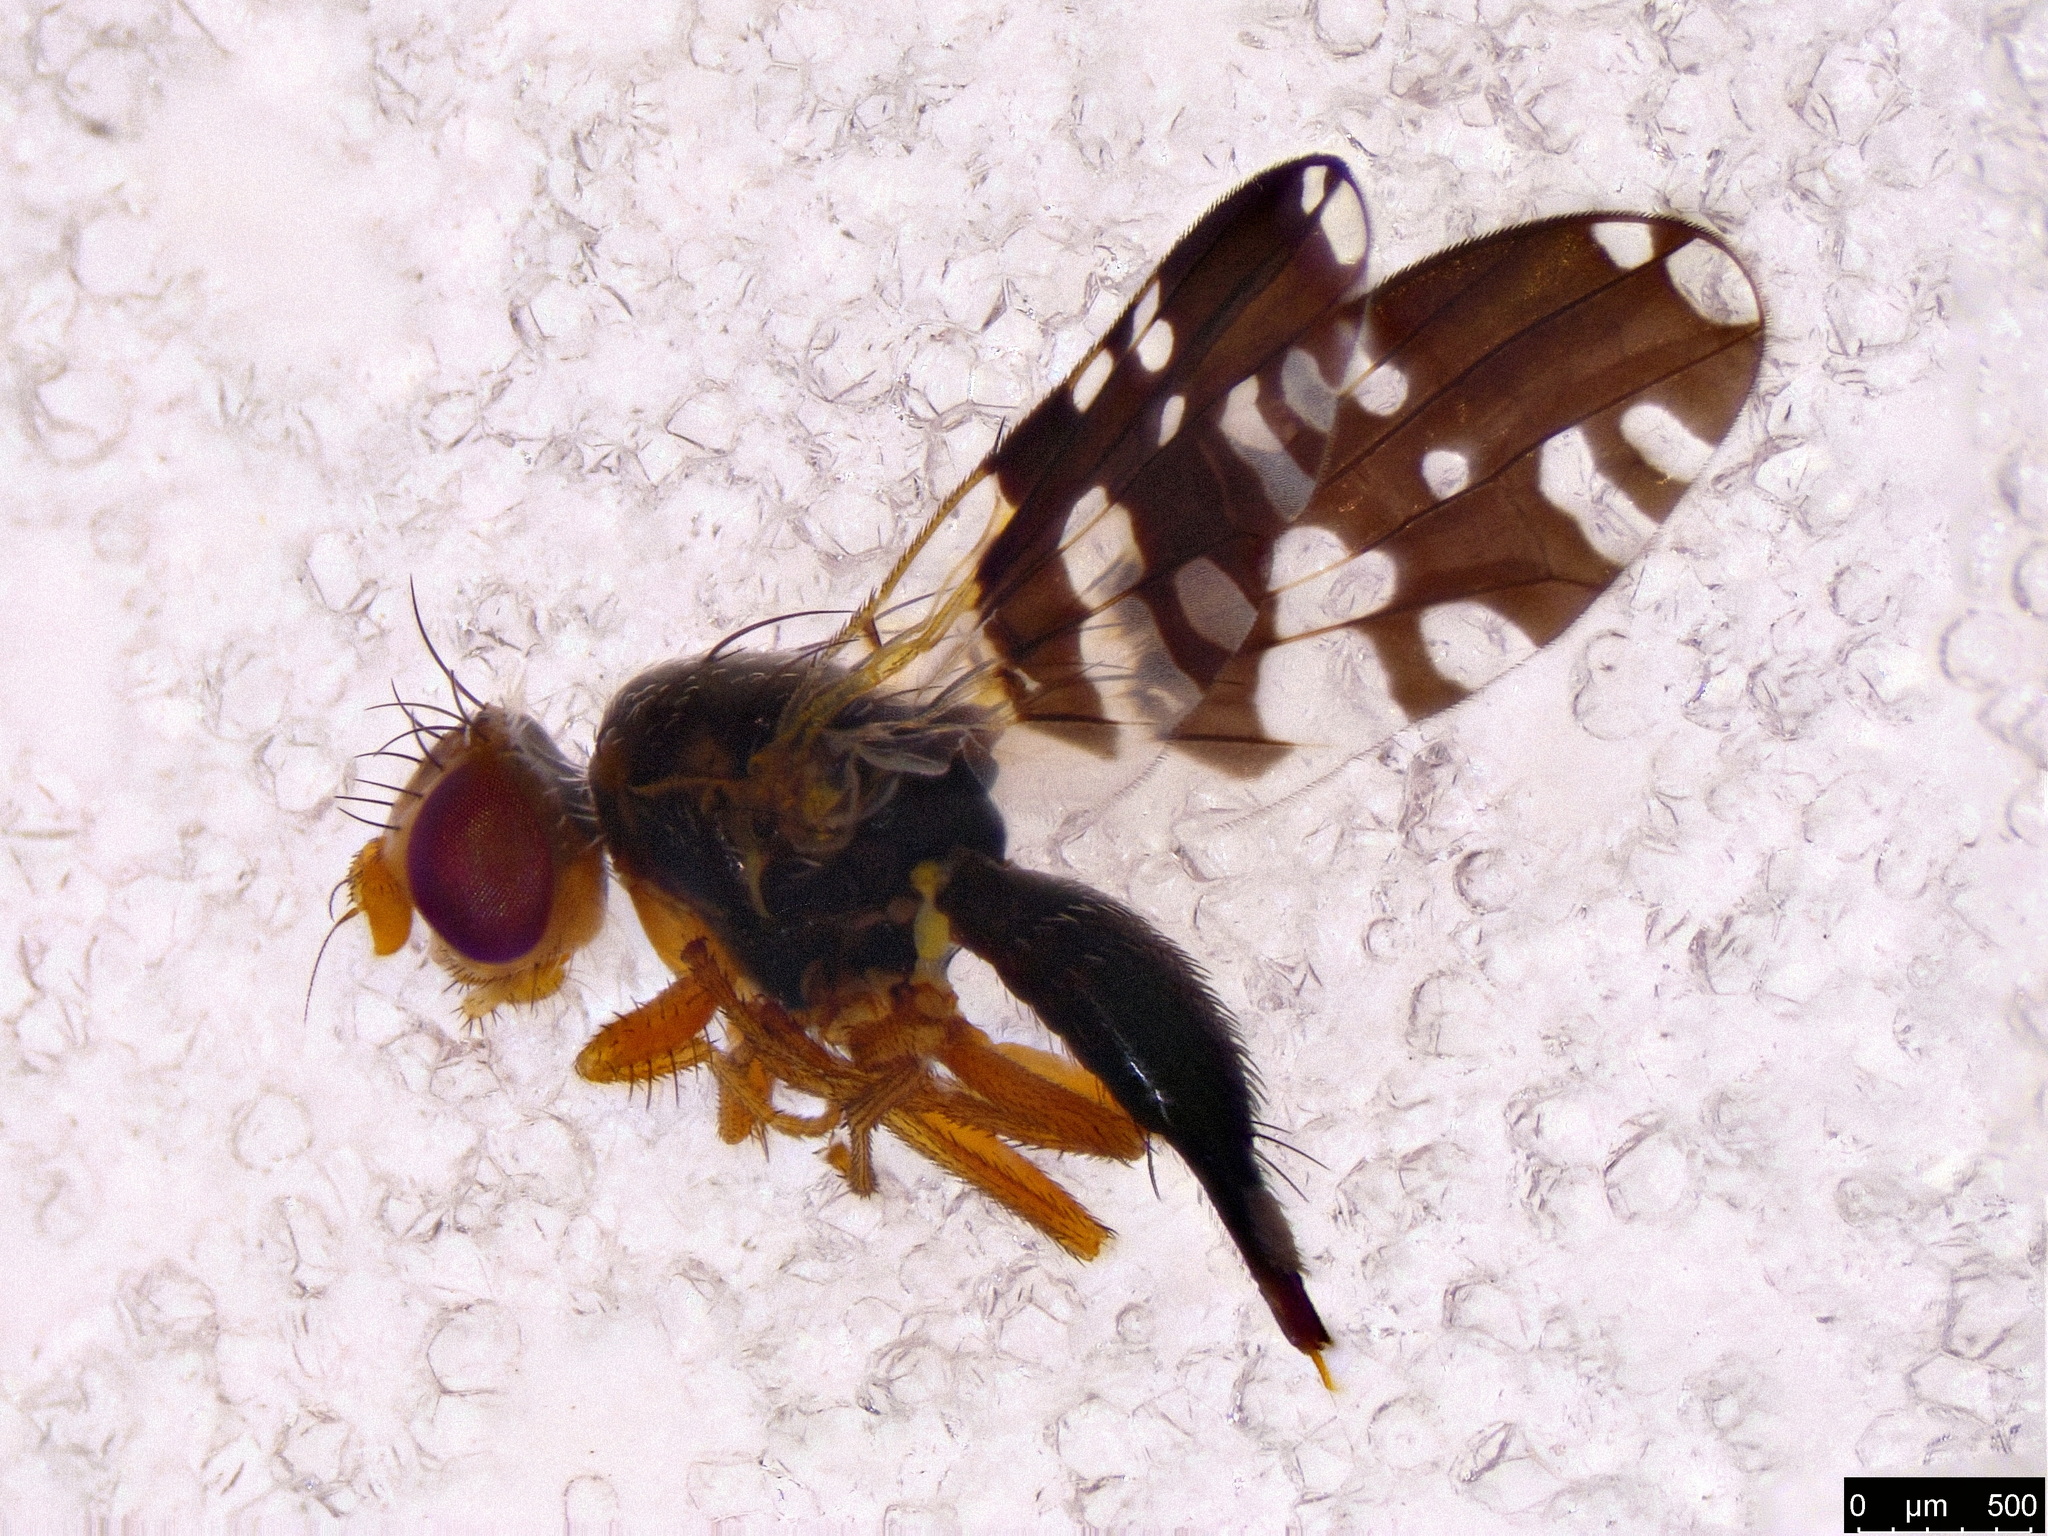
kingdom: Animalia
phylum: Arthropoda
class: Insecta
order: Diptera
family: Tephritidae
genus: Paraspathulina
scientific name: Paraspathulina apicomacula
